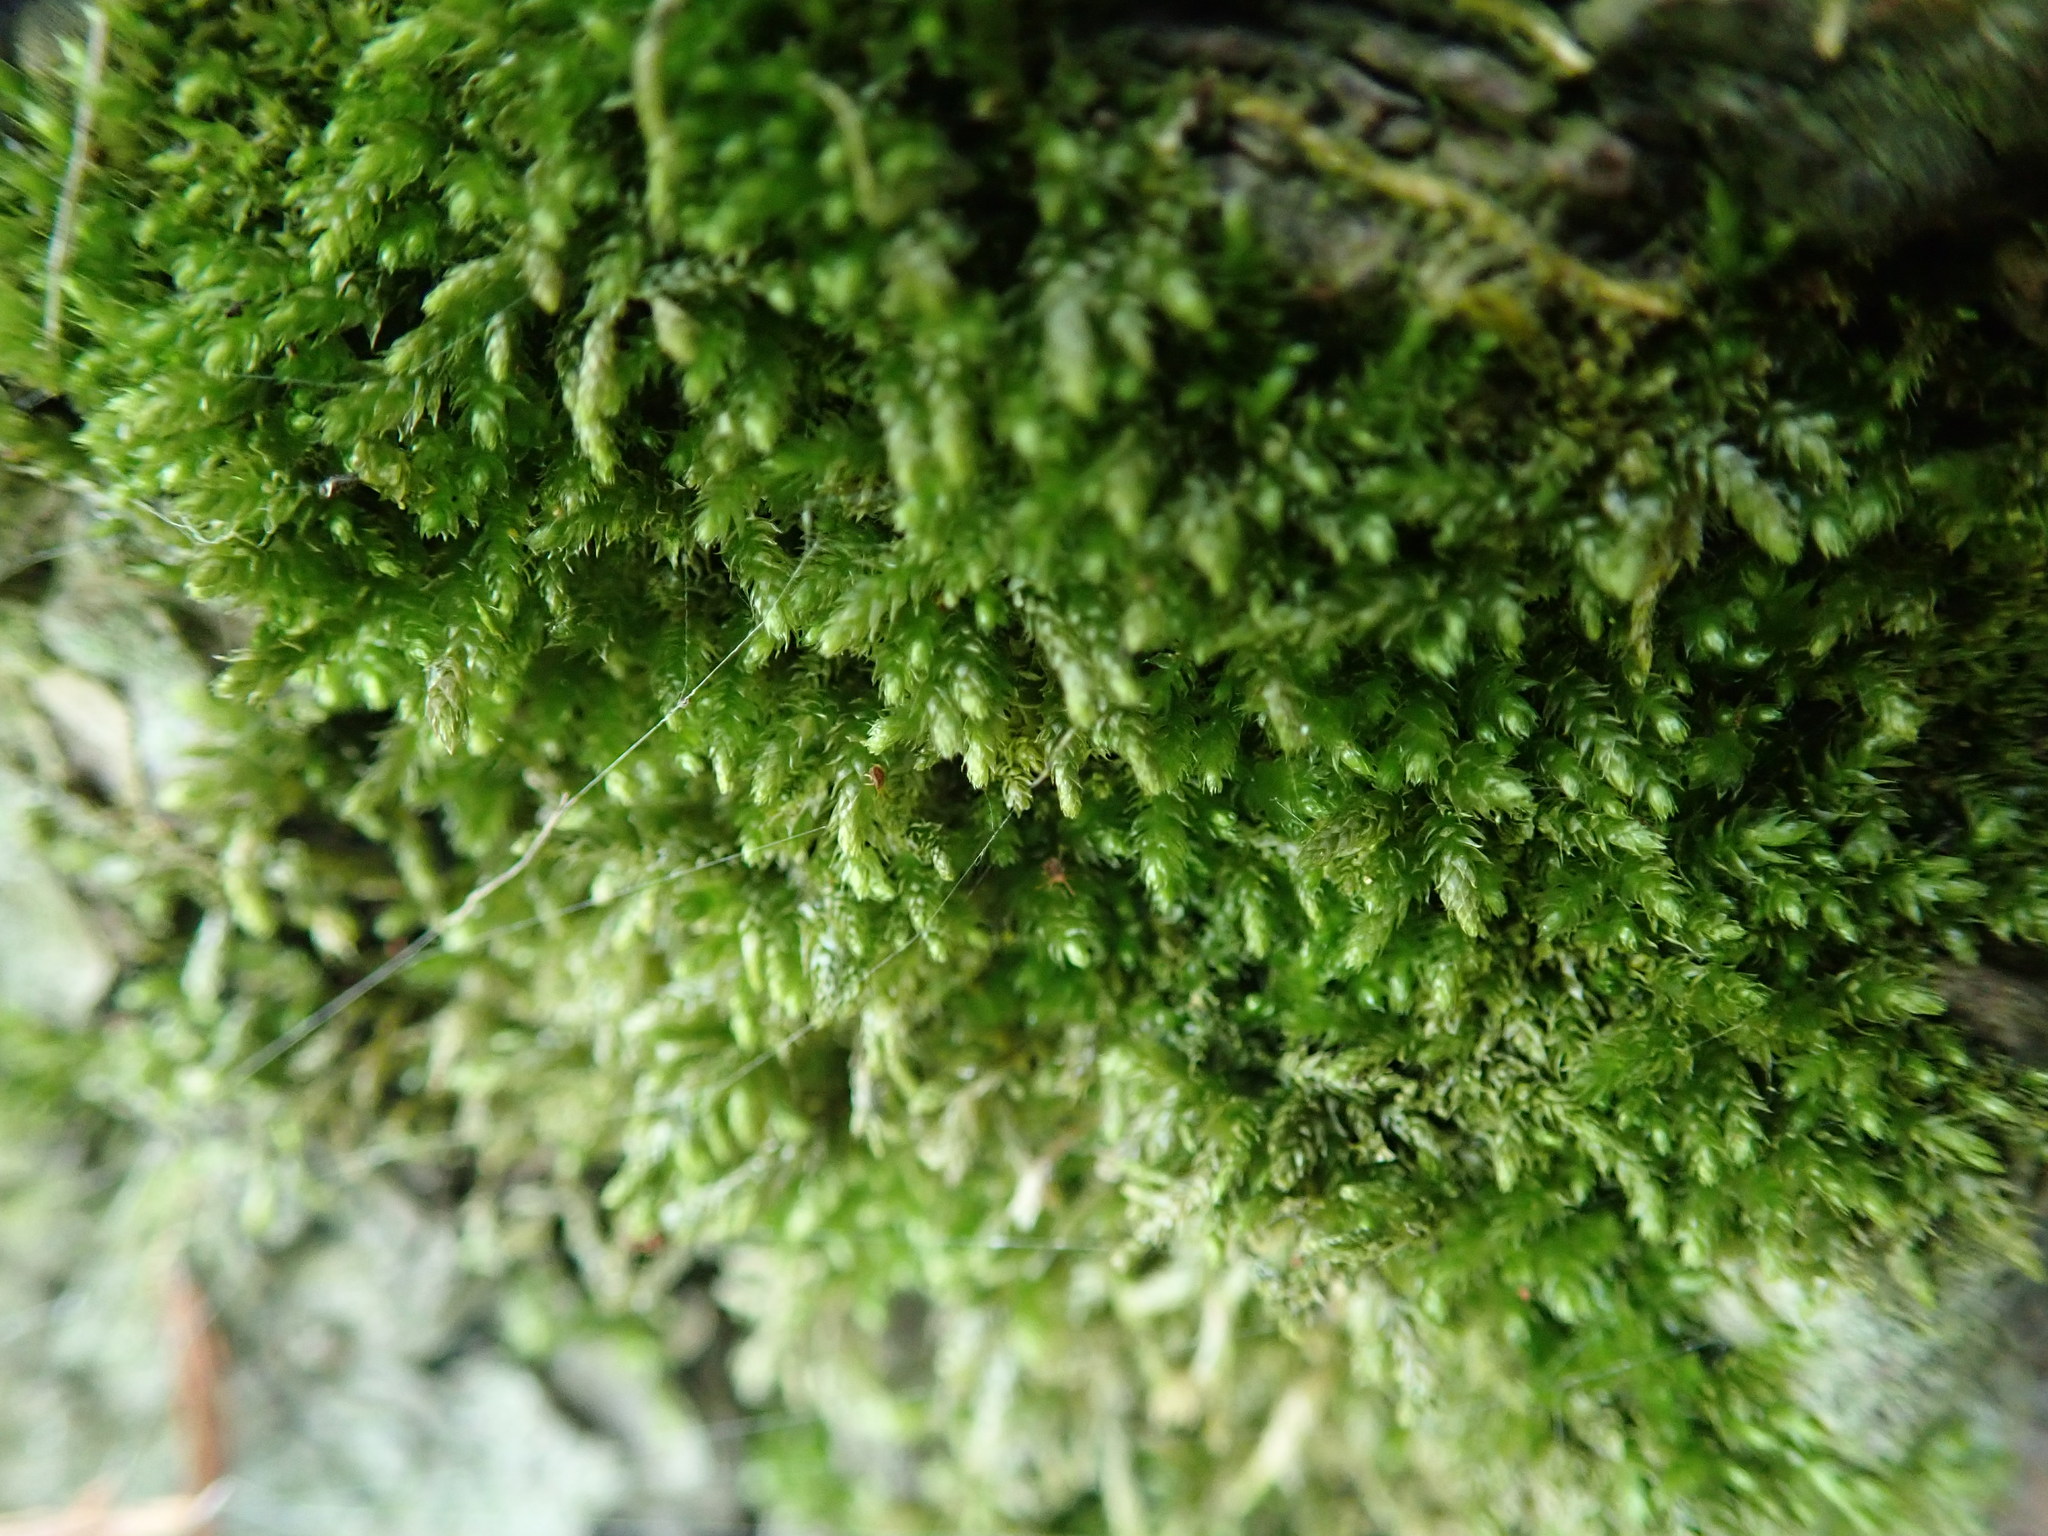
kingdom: Plantae
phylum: Bryophyta
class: Bryopsida
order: Hypnales
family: Brachytheciaceae
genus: Eurhynchiastrum
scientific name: Eurhynchiastrum pulchellum
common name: Elegant beaked moss
